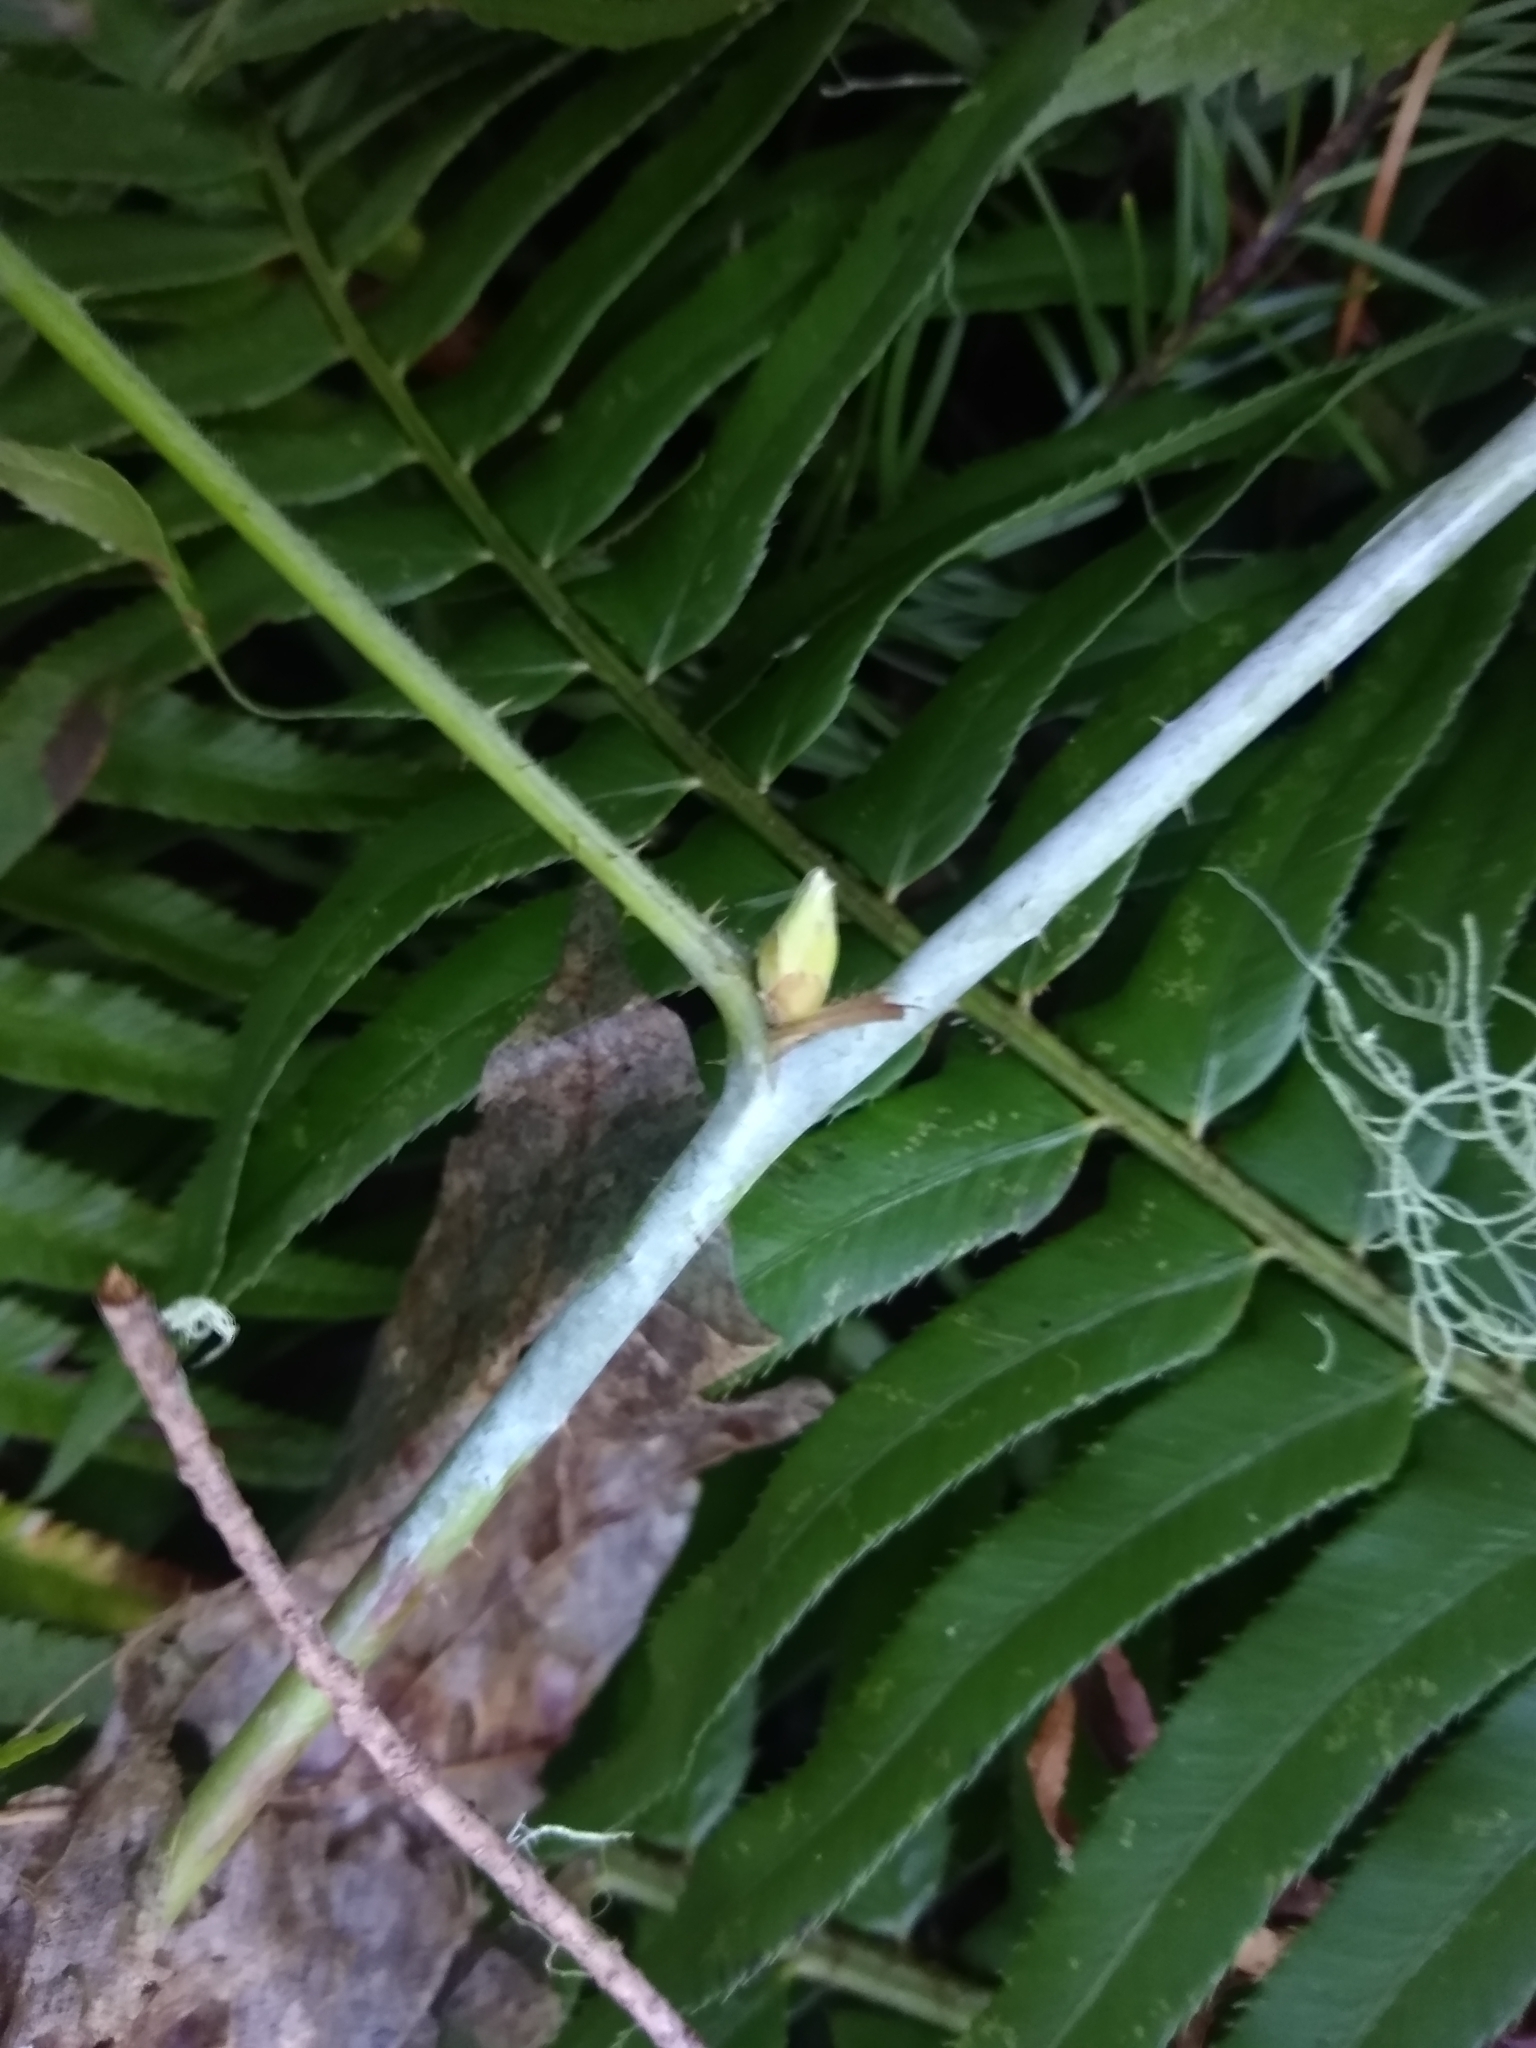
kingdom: Plantae
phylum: Tracheophyta
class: Magnoliopsida
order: Rosales
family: Rosaceae
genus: Rubus
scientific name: Rubus ursinus
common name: Pacific blackberry
